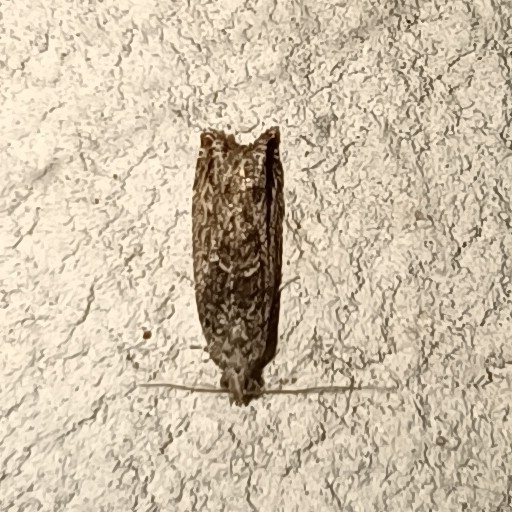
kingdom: Animalia
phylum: Arthropoda
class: Insecta
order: Lepidoptera
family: Tortricidae
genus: Epinotia
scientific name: Epinotia nisella
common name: Grey poplar bell
